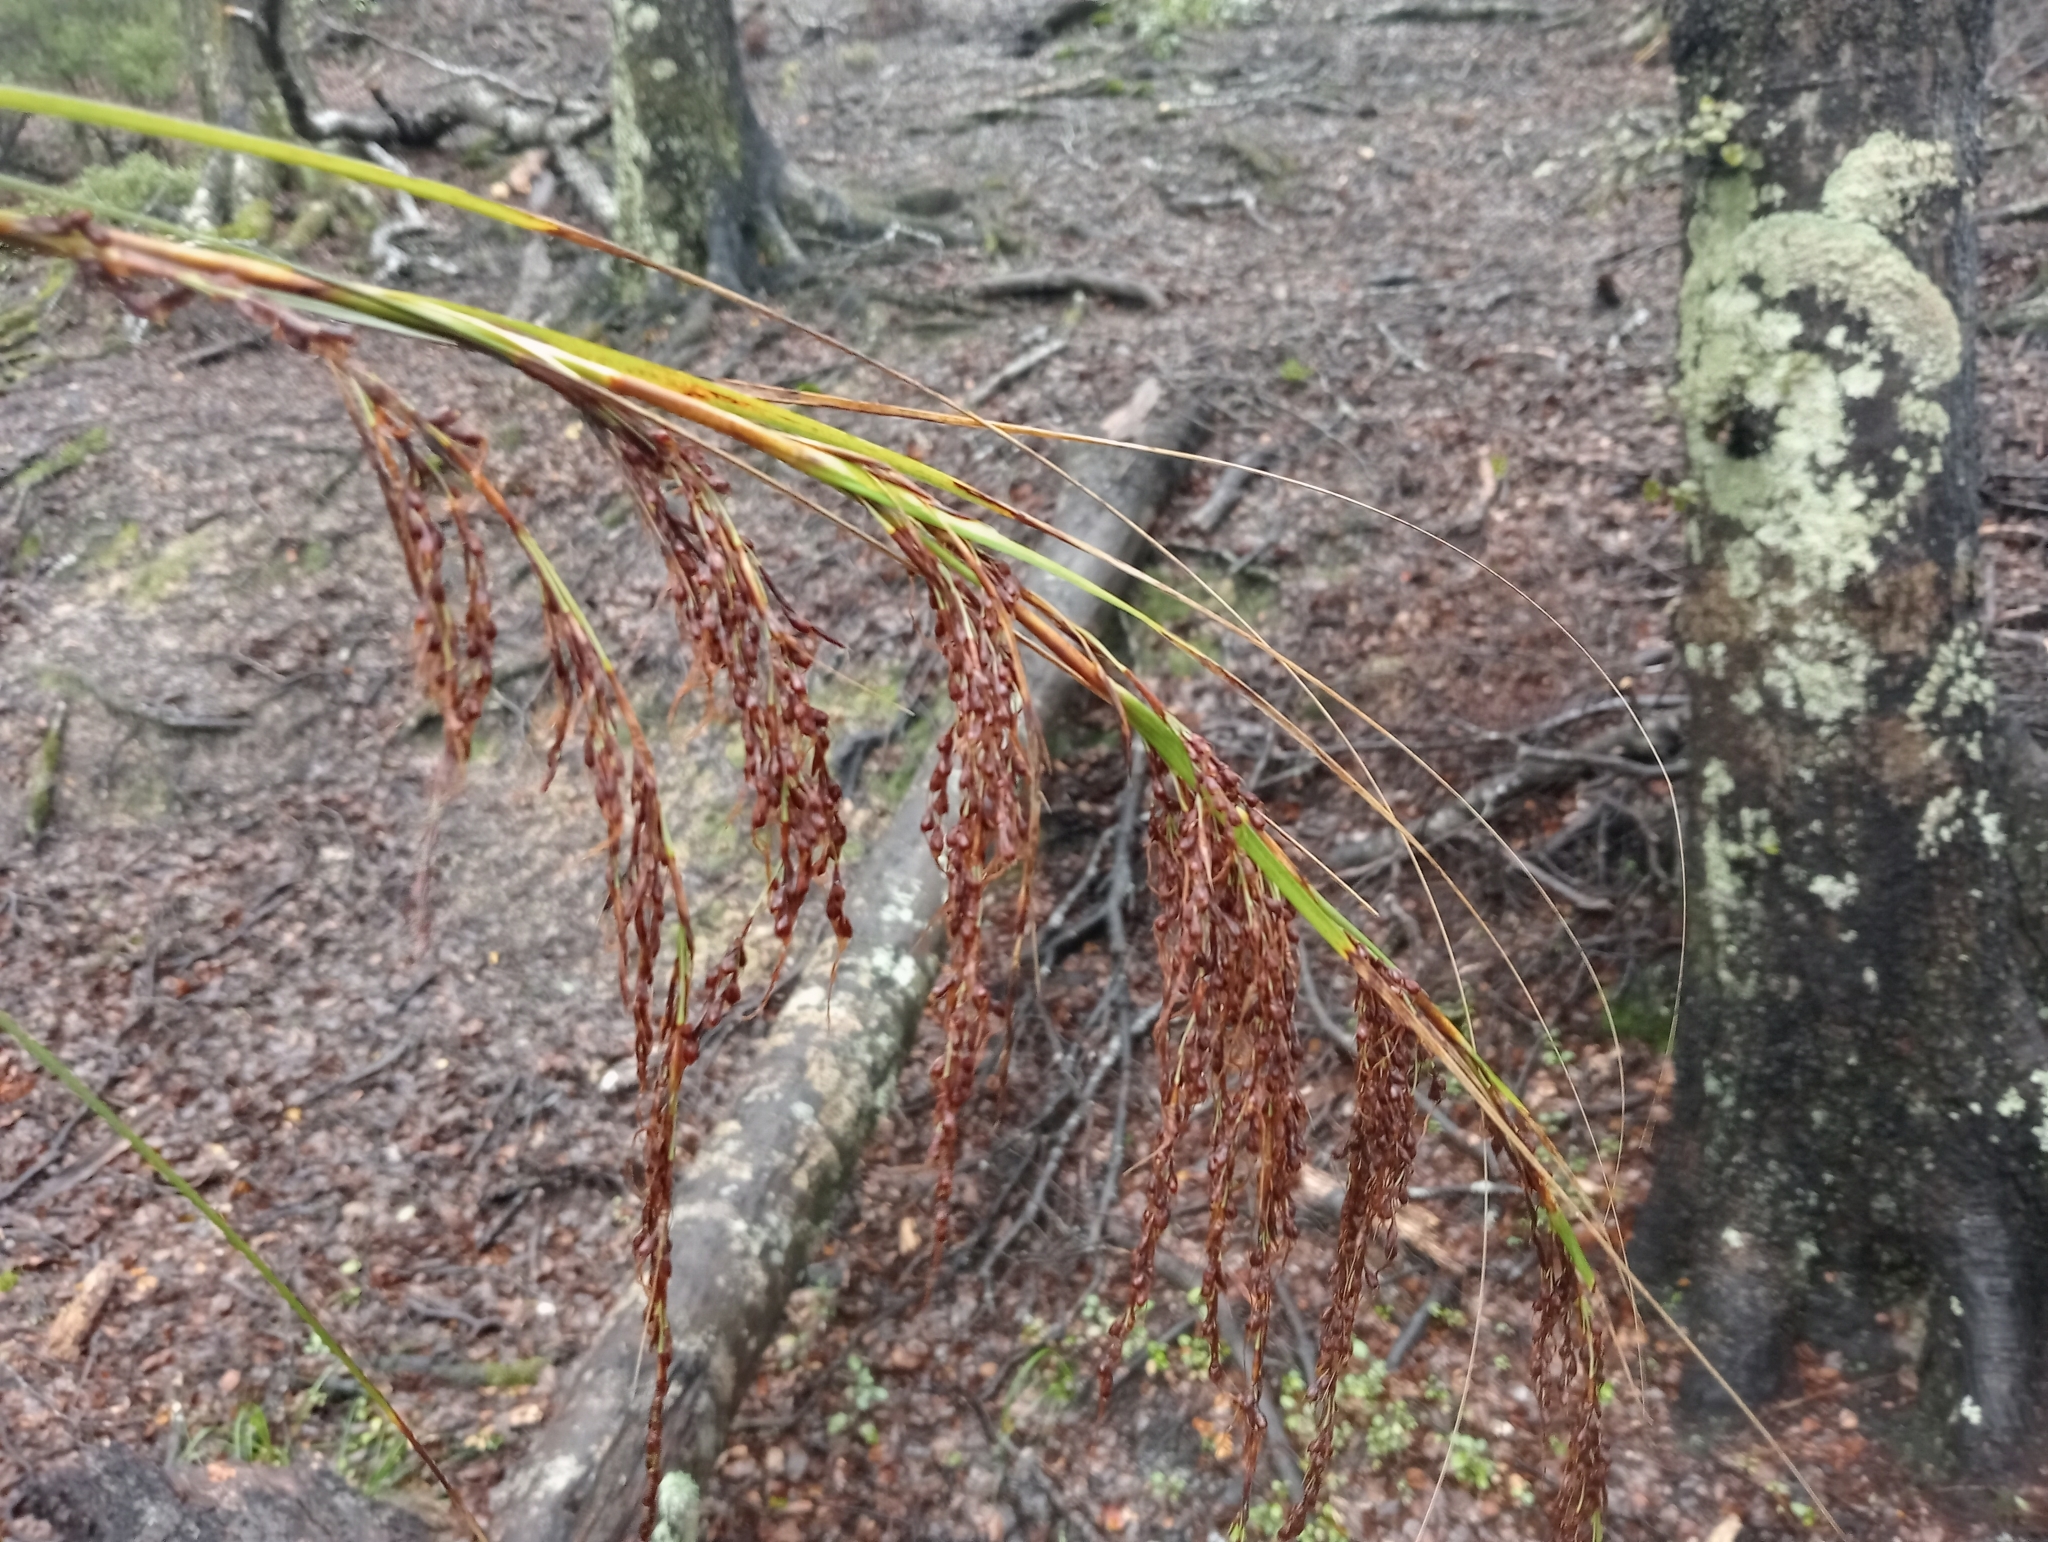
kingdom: Plantae
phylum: Tracheophyta
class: Liliopsida
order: Poales
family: Cyperaceae
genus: Gahnia
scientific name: Gahnia setifolia
